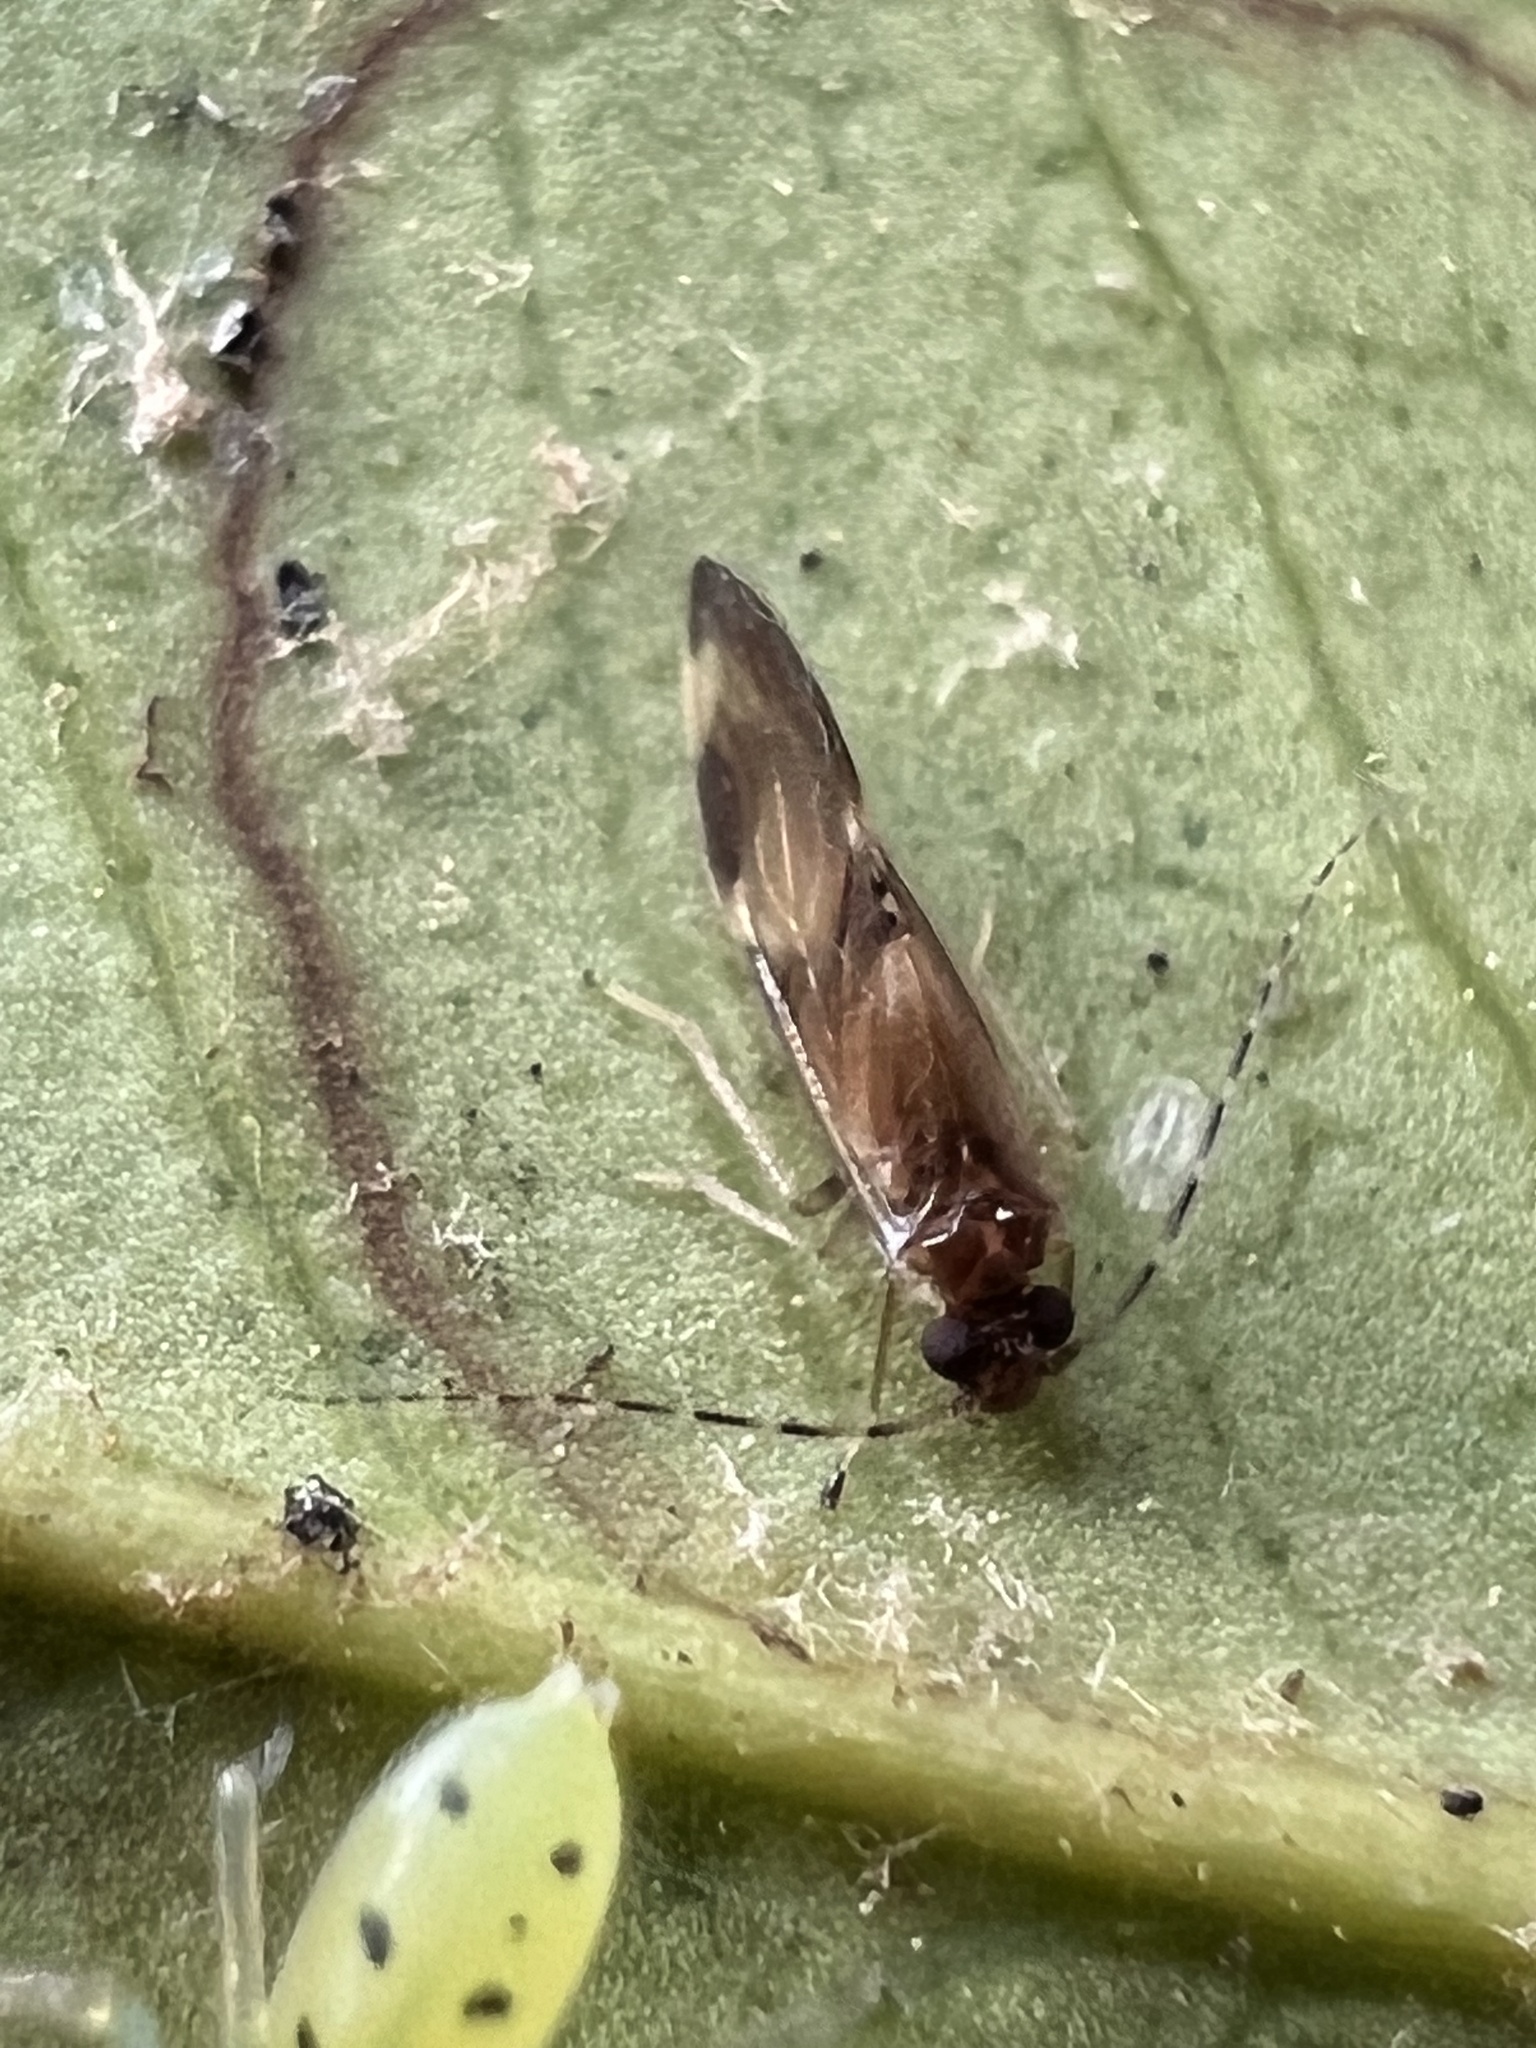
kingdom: Animalia
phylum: Arthropoda
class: Insecta
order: Psocodea
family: Amphipsocidae
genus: Polypsocus
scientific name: Polypsocus corruptus
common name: Corrupt barklouse
